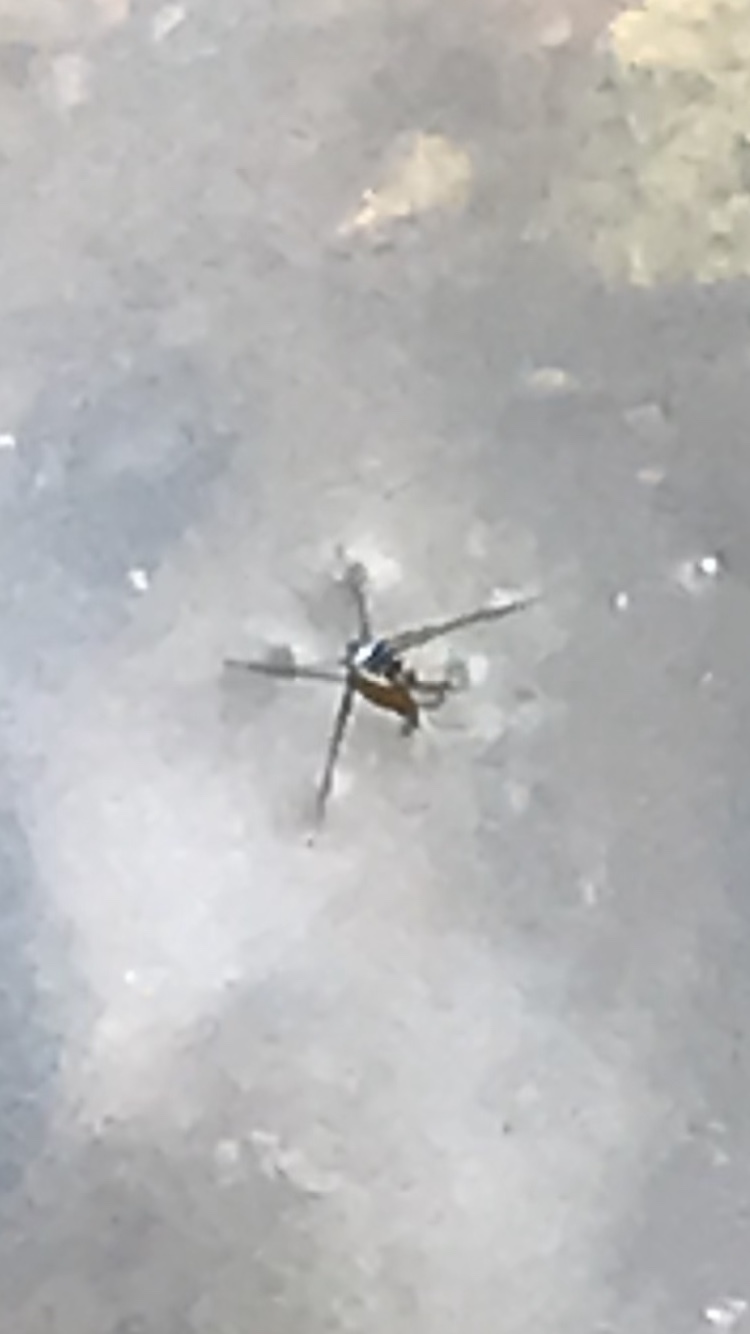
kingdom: Animalia
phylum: Arthropoda
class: Insecta
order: Hemiptera
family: Gerridae
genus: Trepobates
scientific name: Trepobates
